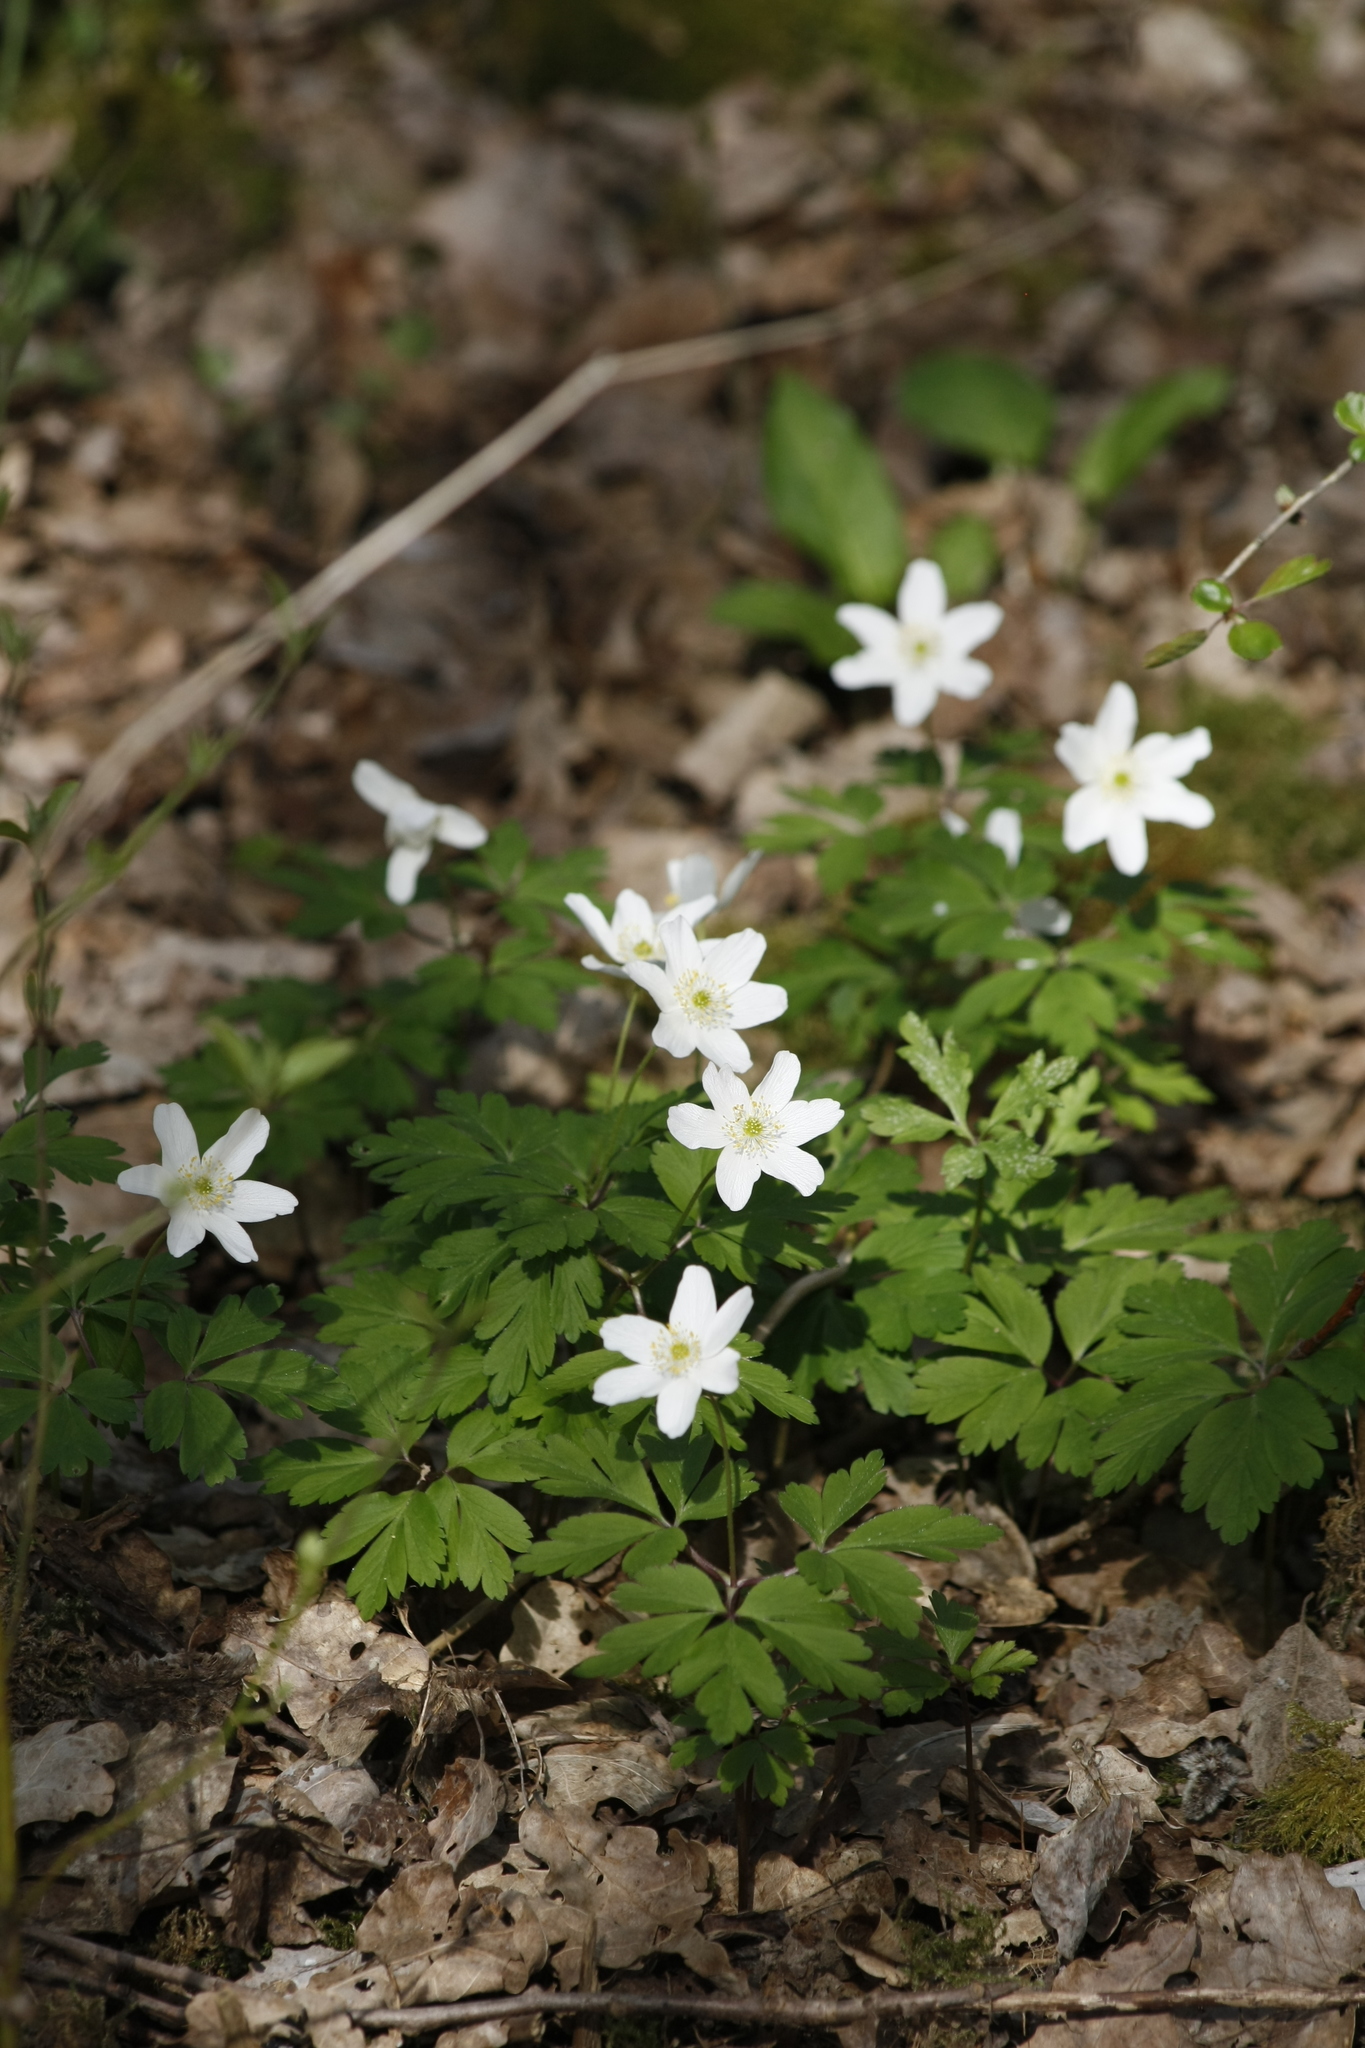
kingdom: Plantae
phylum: Tracheophyta
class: Magnoliopsida
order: Ranunculales
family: Ranunculaceae
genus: Anemone
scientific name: Anemone nemorosa
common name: Wood anemone
